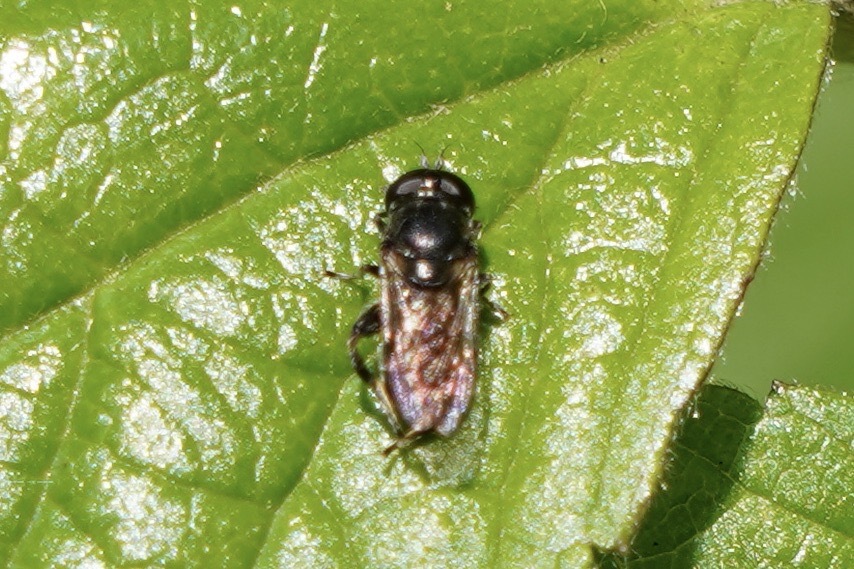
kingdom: Animalia
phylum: Arthropoda
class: Insecta
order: Diptera
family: Syrphidae
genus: Eumerus
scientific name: Eumerus
